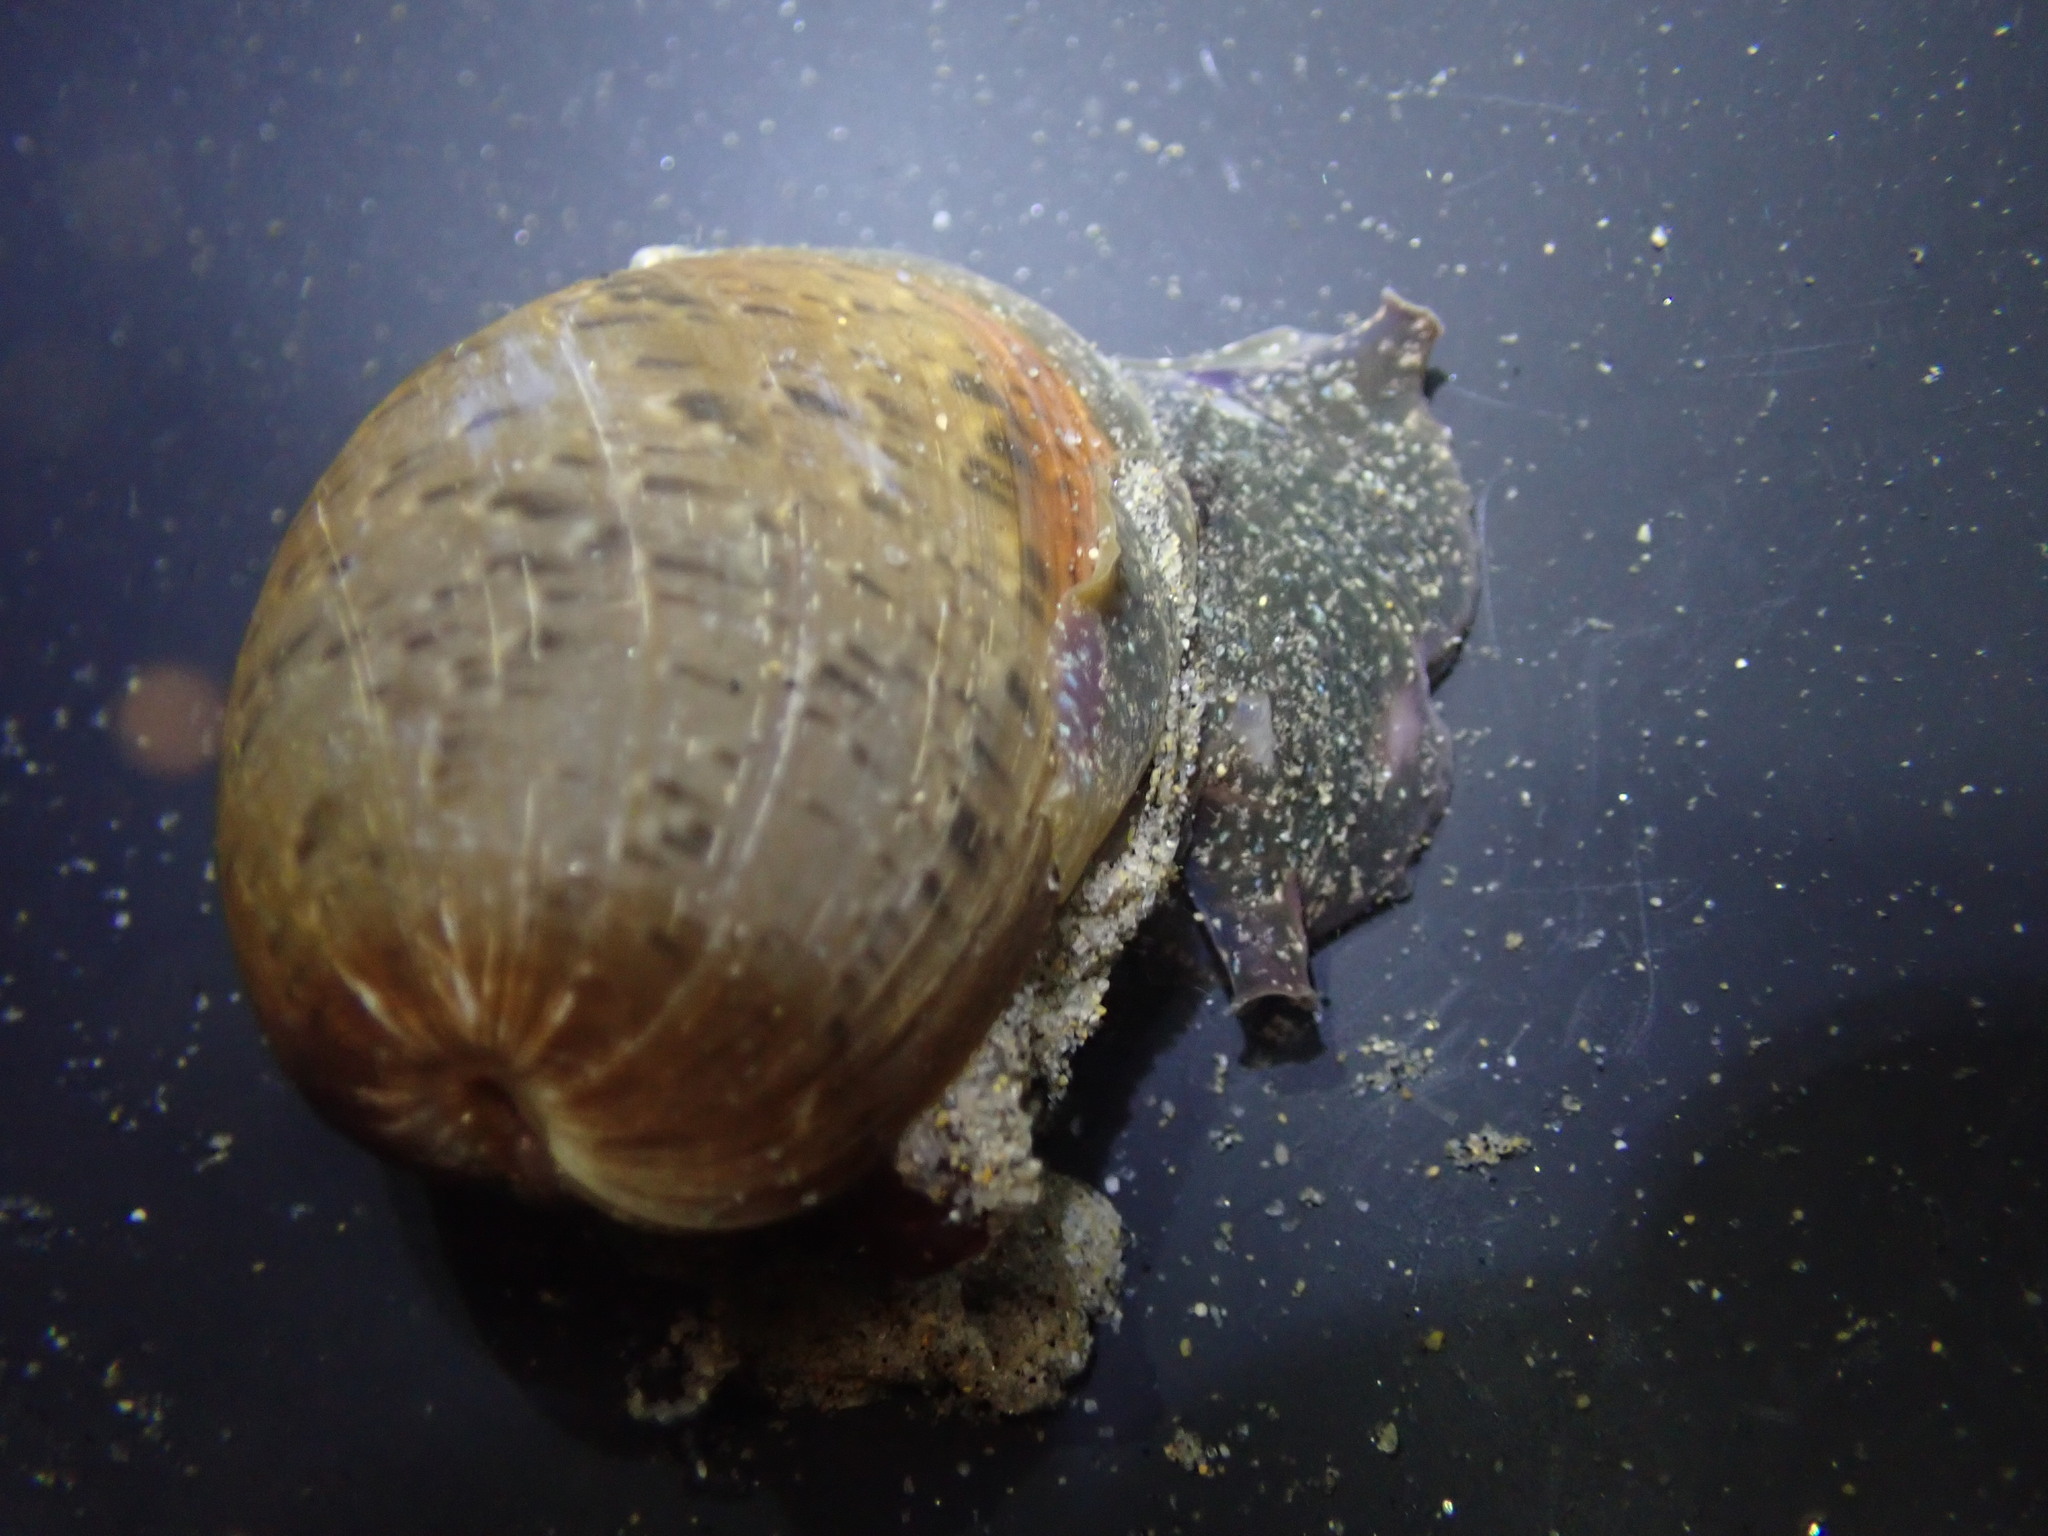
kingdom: Animalia
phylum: Mollusca
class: Gastropoda
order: Cephalaspidea
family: Bullidae
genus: Bulla
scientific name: Bulla gouldiana
